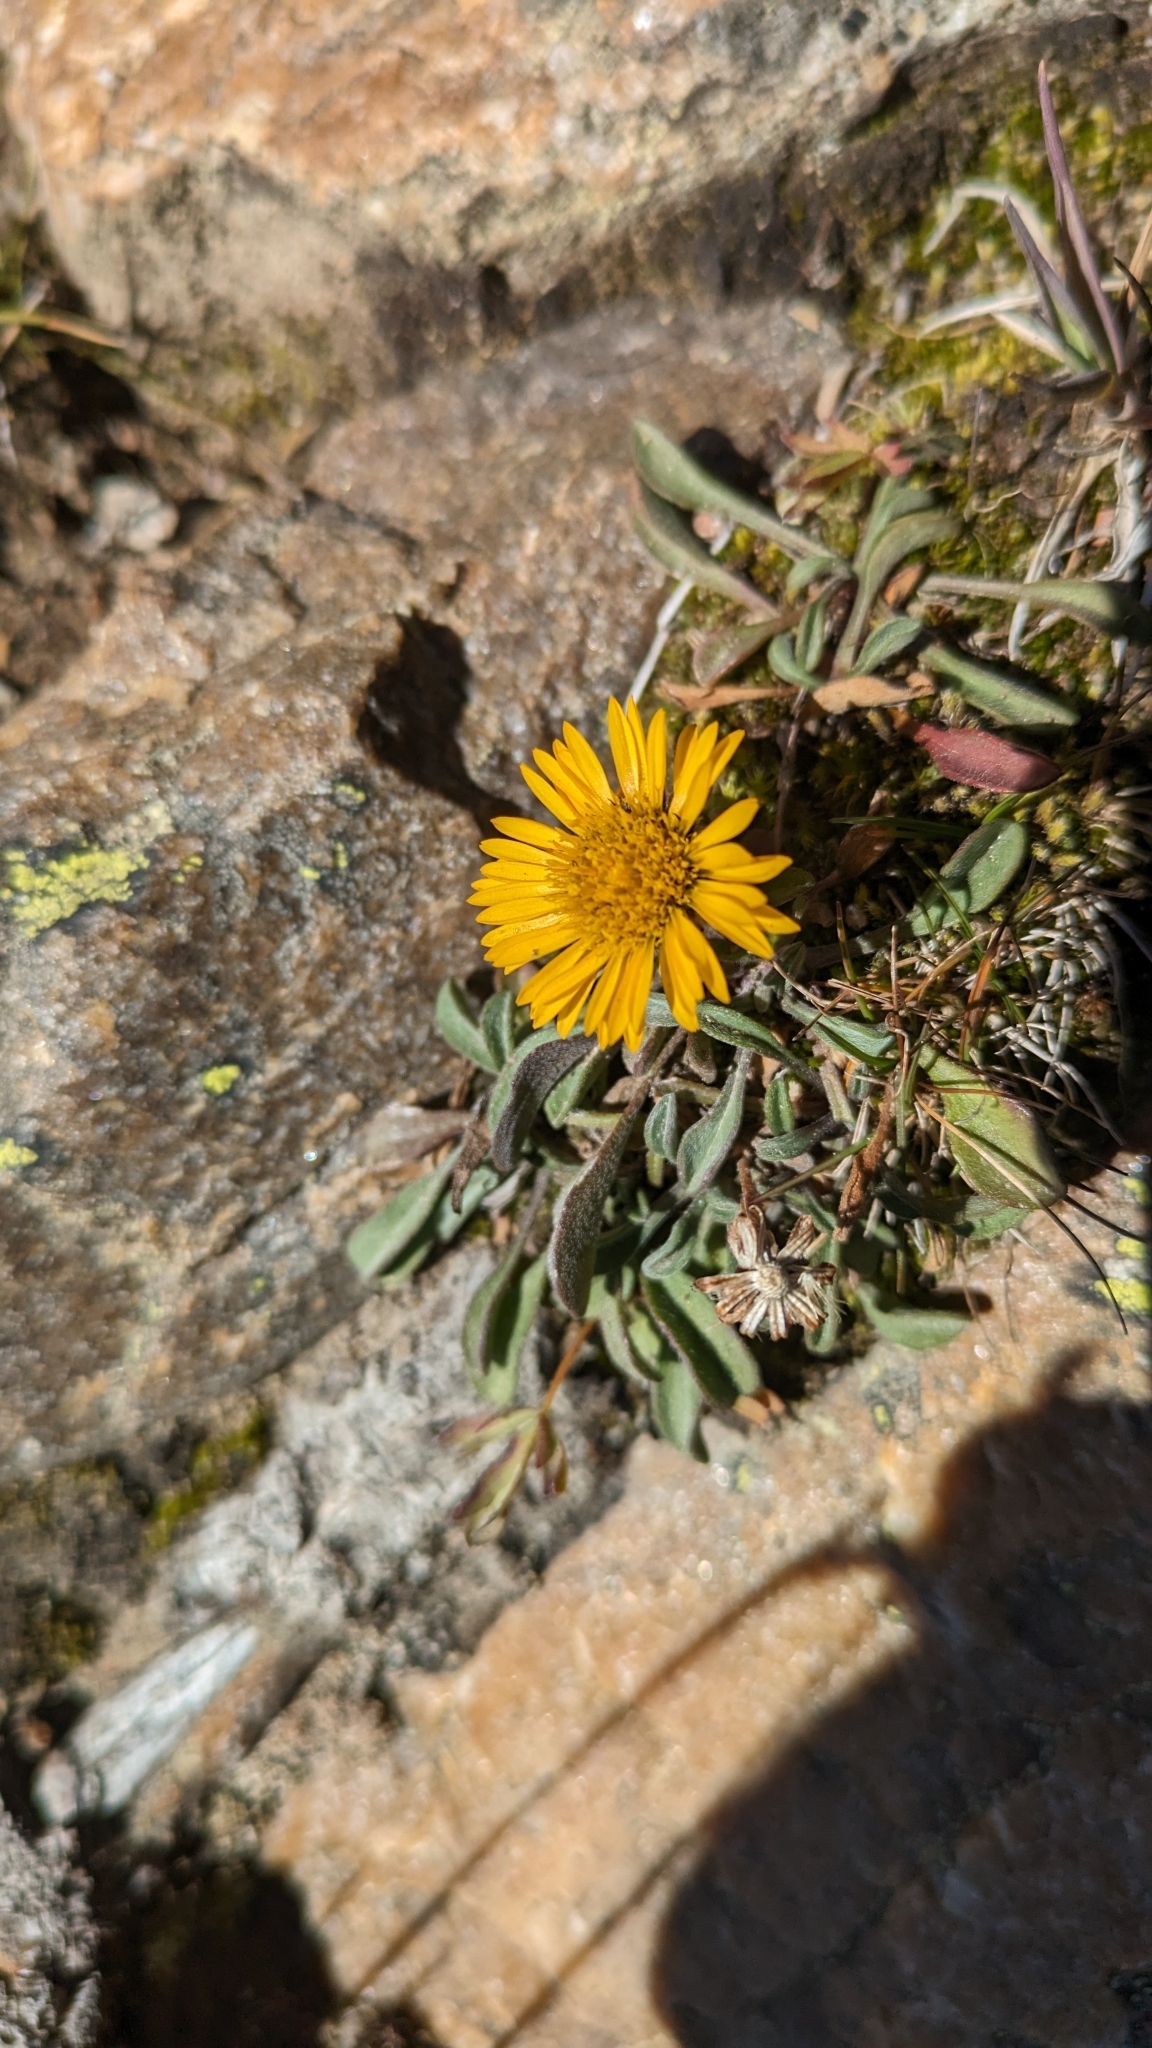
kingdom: Plantae
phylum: Tracheophyta
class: Magnoliopsida
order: Asterales
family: Asteraceae
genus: Erigeron
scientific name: Erigeron aureus
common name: Alpine yellow fleabane
